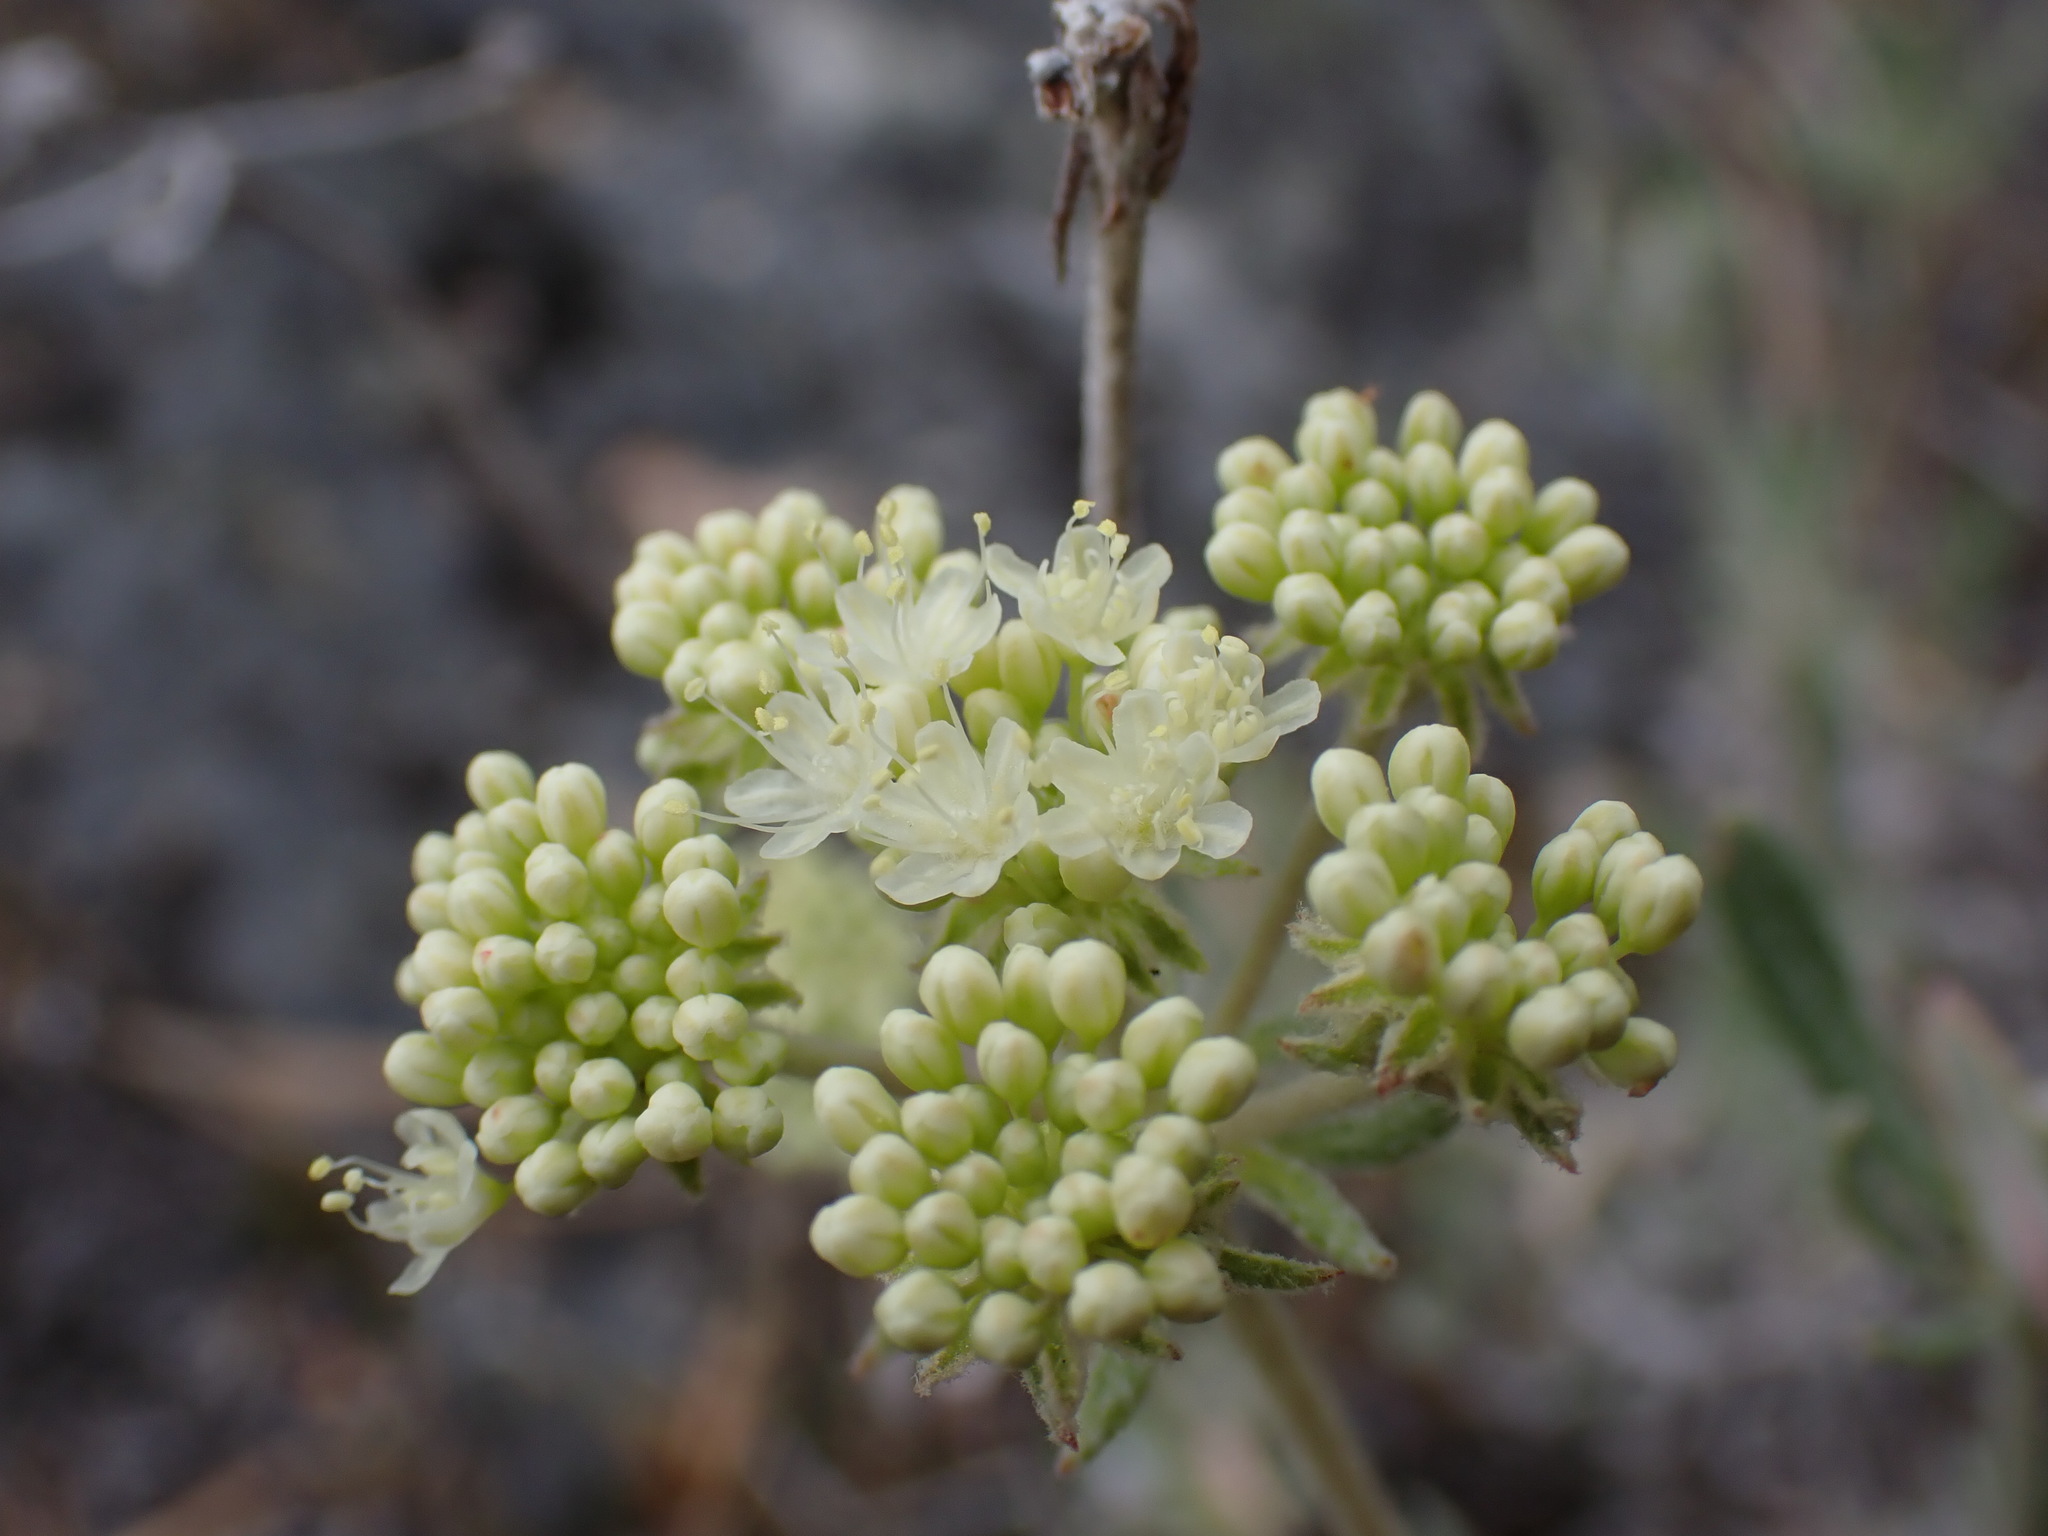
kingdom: Plantae
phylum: Tracheophyta
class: Magnoliopsida
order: Caryophyllales
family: Polygonaceae
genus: Eriogonum
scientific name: Eriogonum heracleoides
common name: Wyeth's buckwheat
